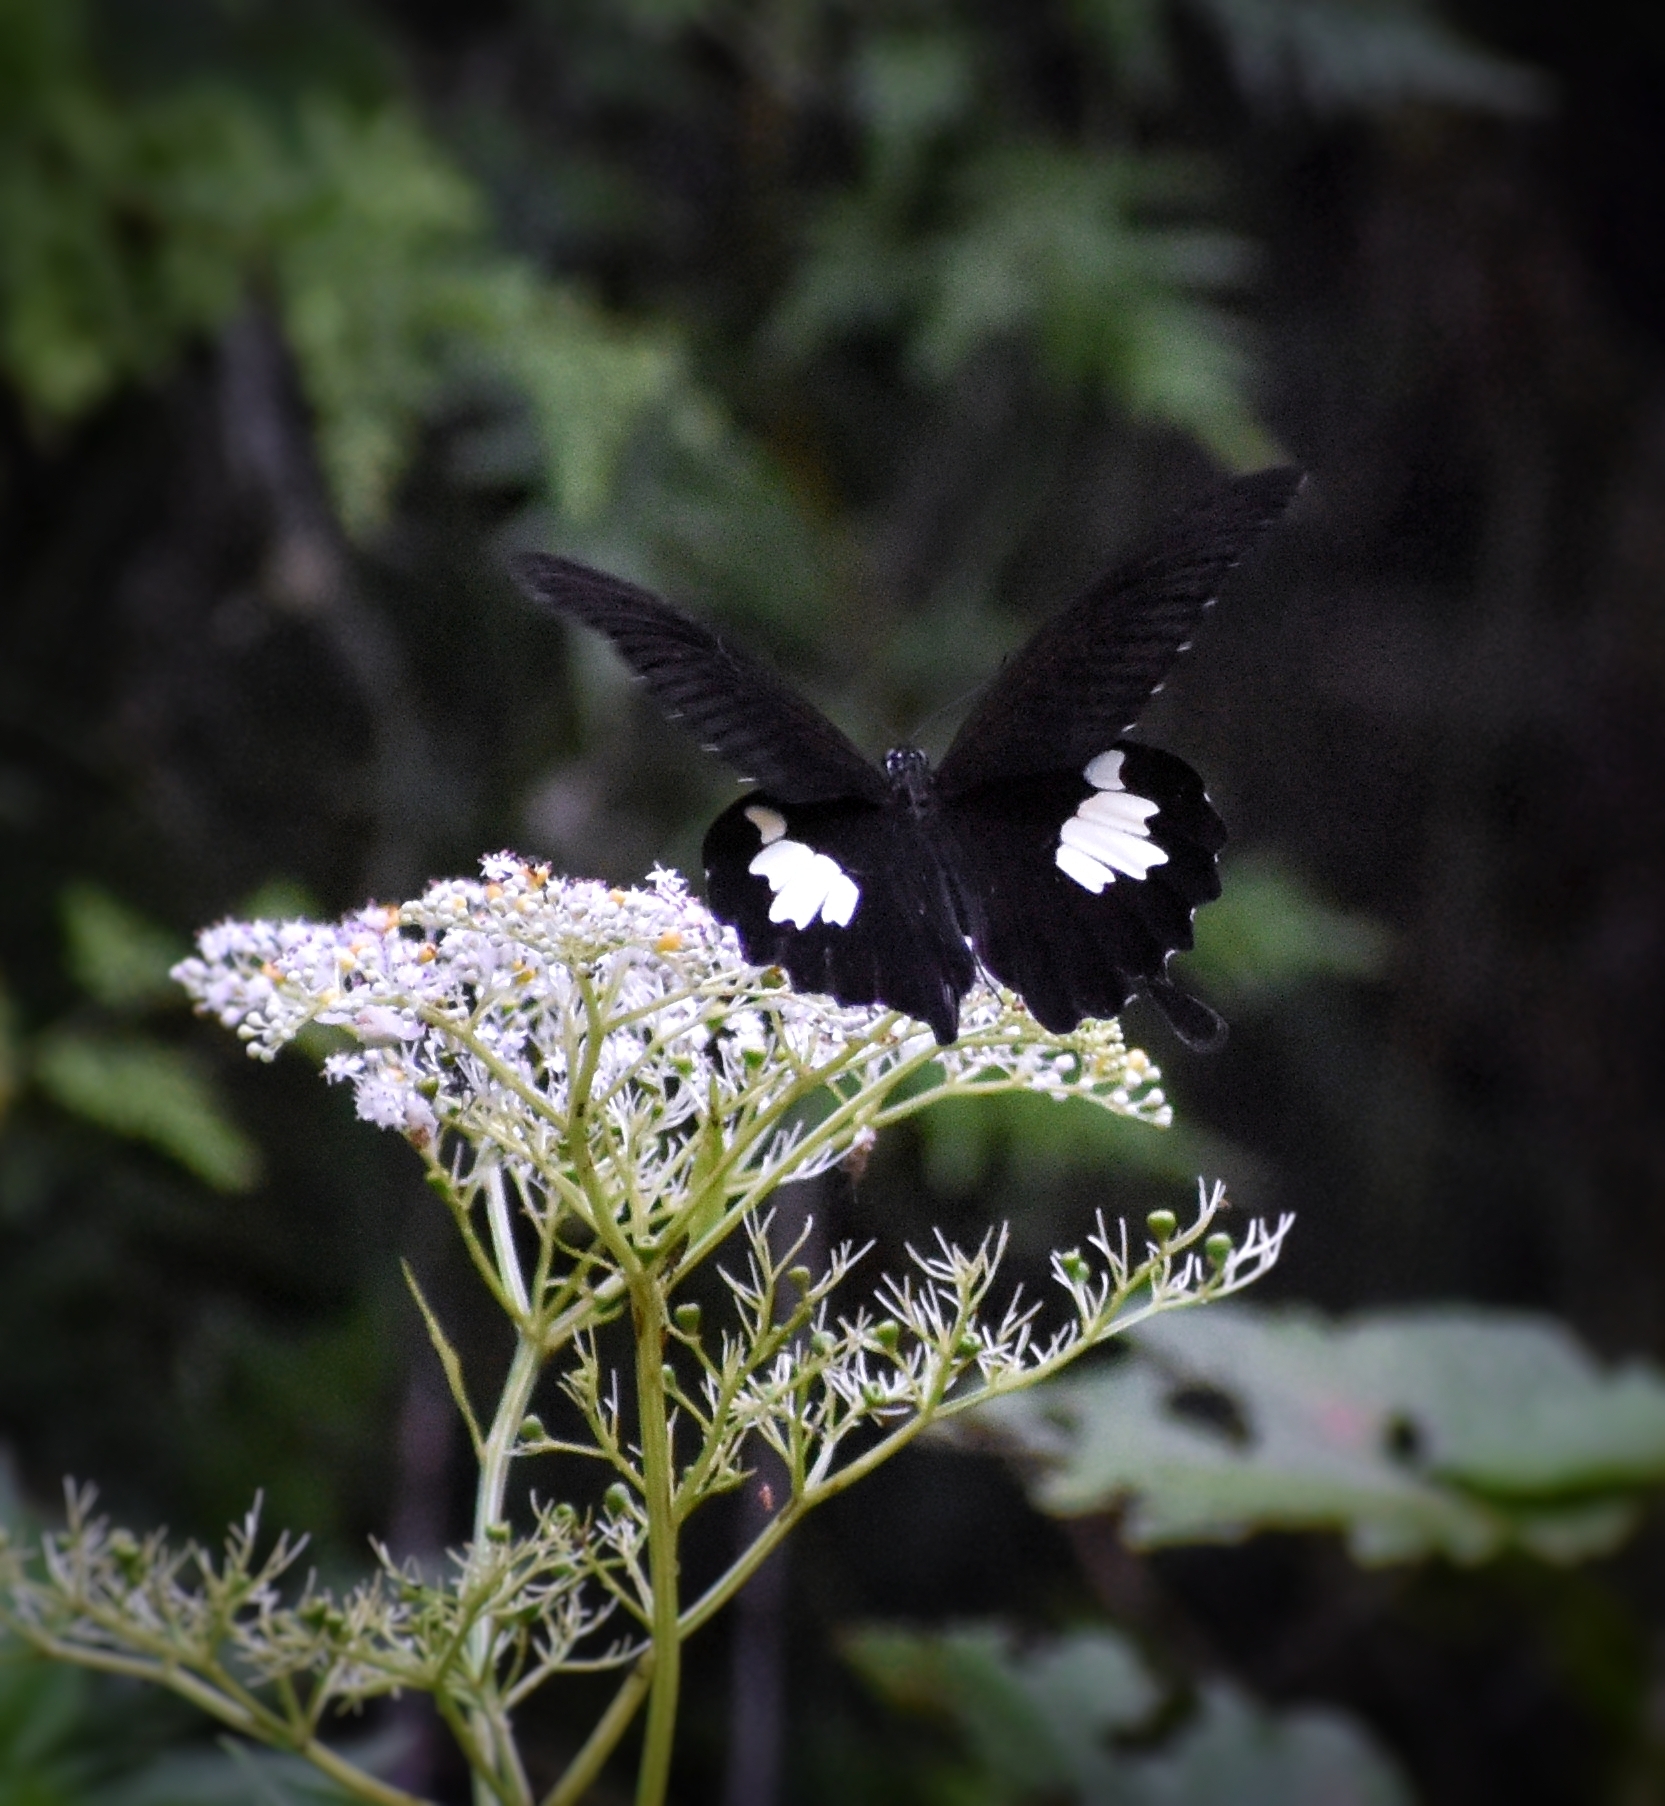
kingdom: Animalia
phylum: Arthropoda
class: Insecta
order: Lepidoptera
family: Papilionidae
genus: Papilio
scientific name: Papilio nephelus
